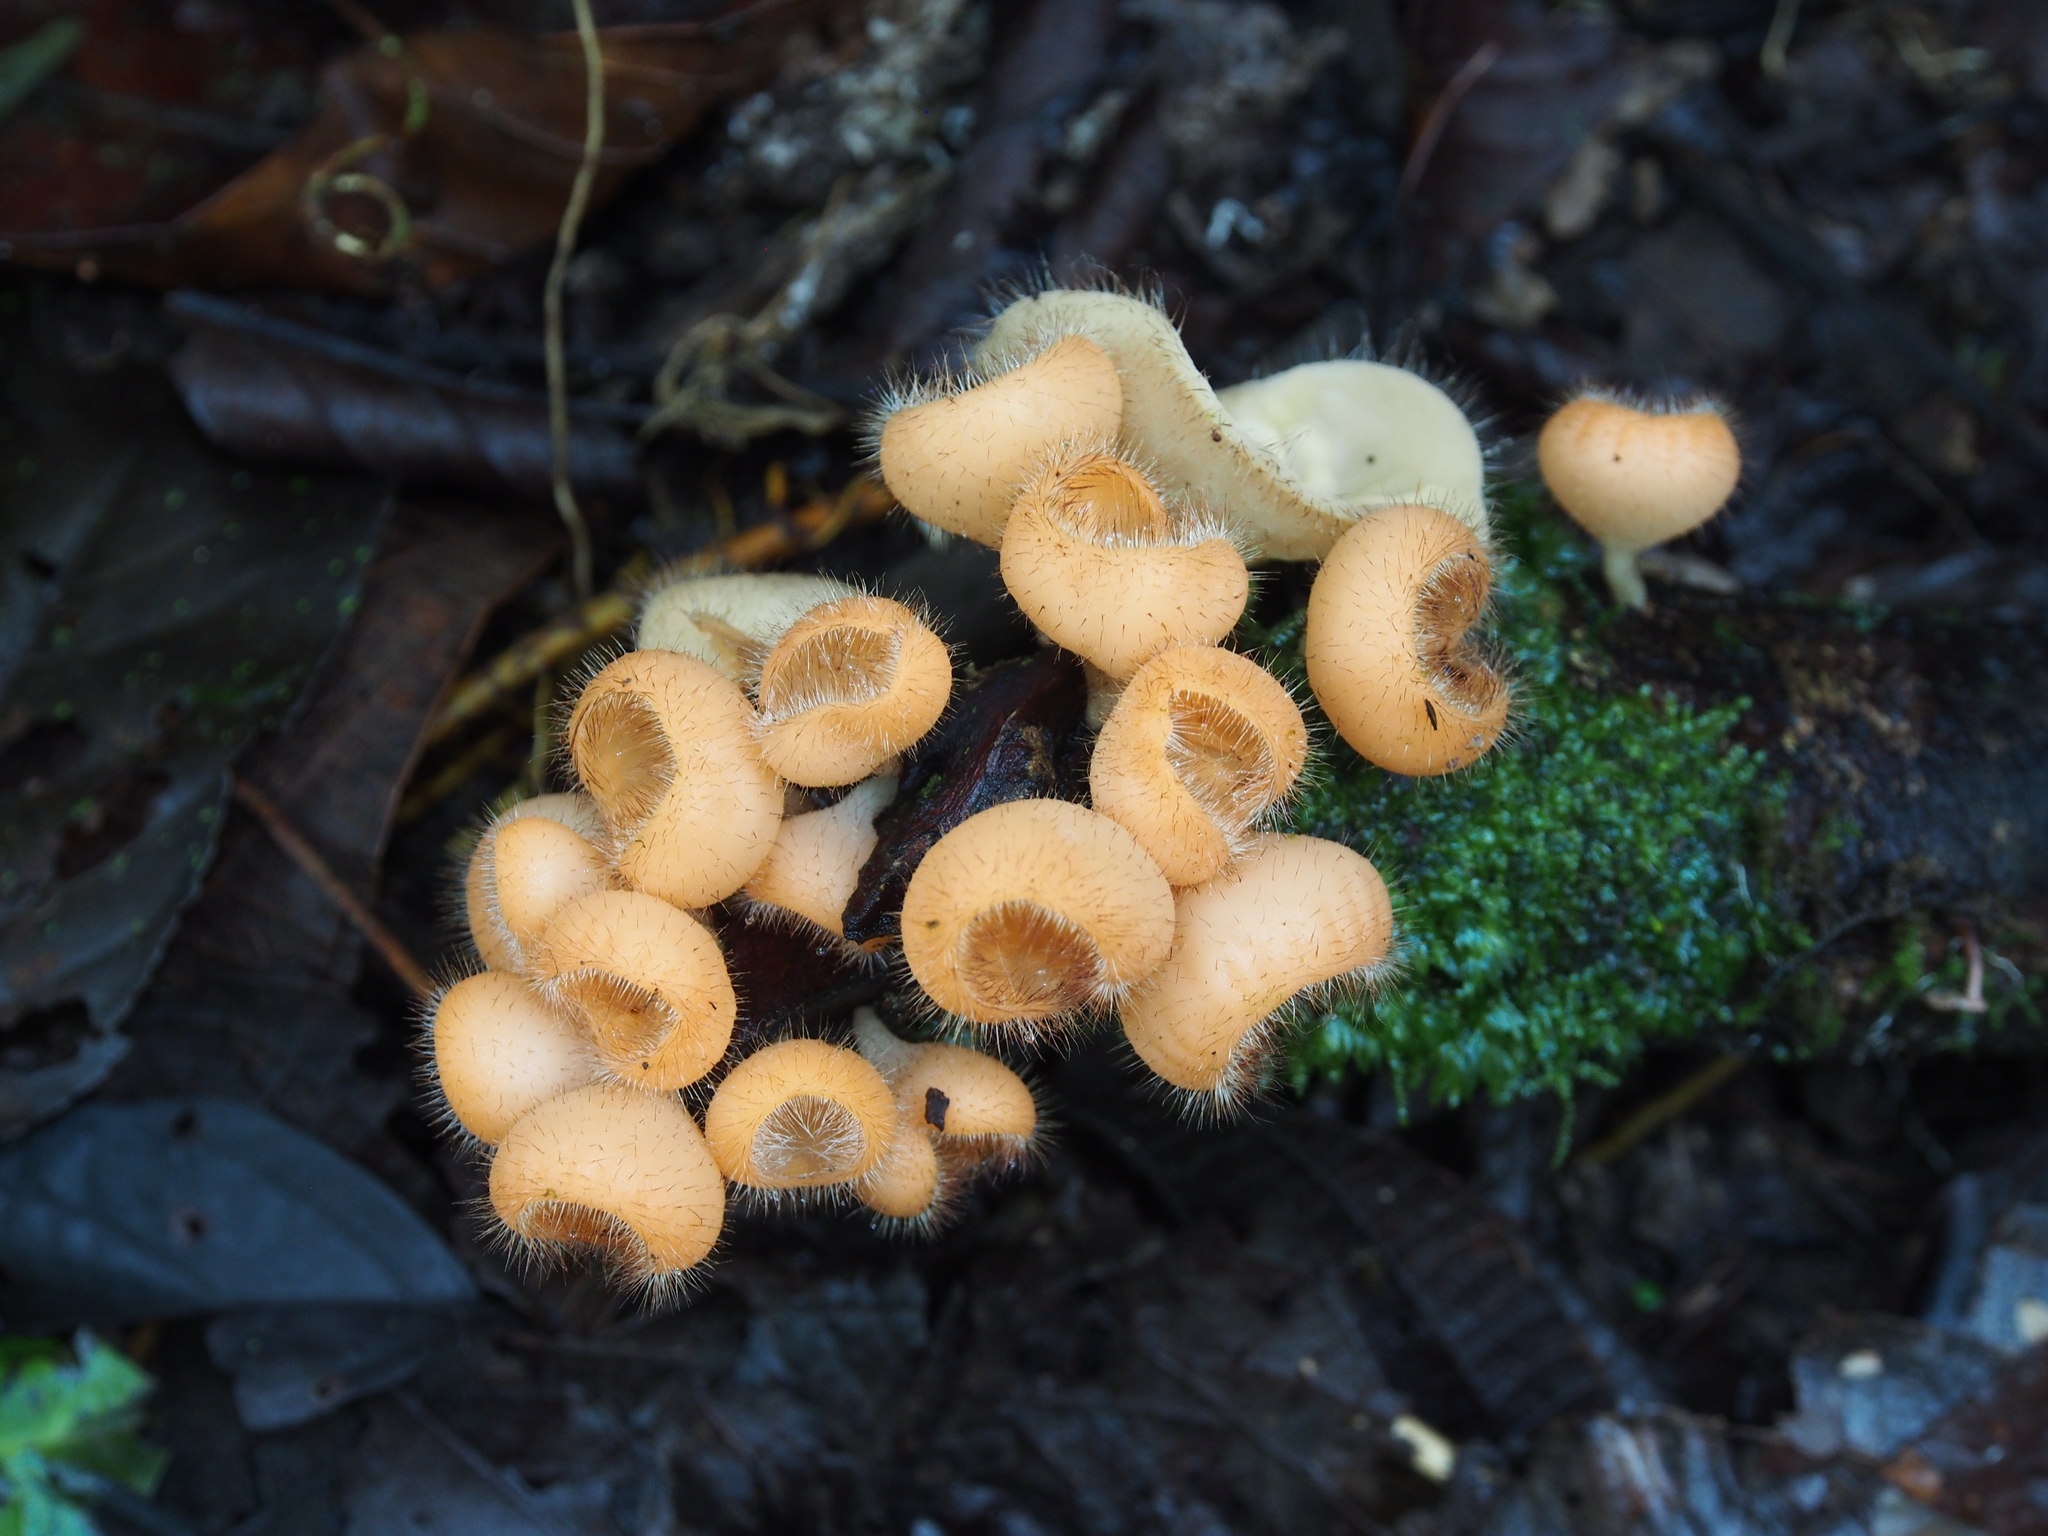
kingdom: Fungi
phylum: Ascomycota
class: Pezizomycetes
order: Pezizales
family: Sarcoscyphaceae
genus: Cookeina
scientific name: Cookeina tricholoma
